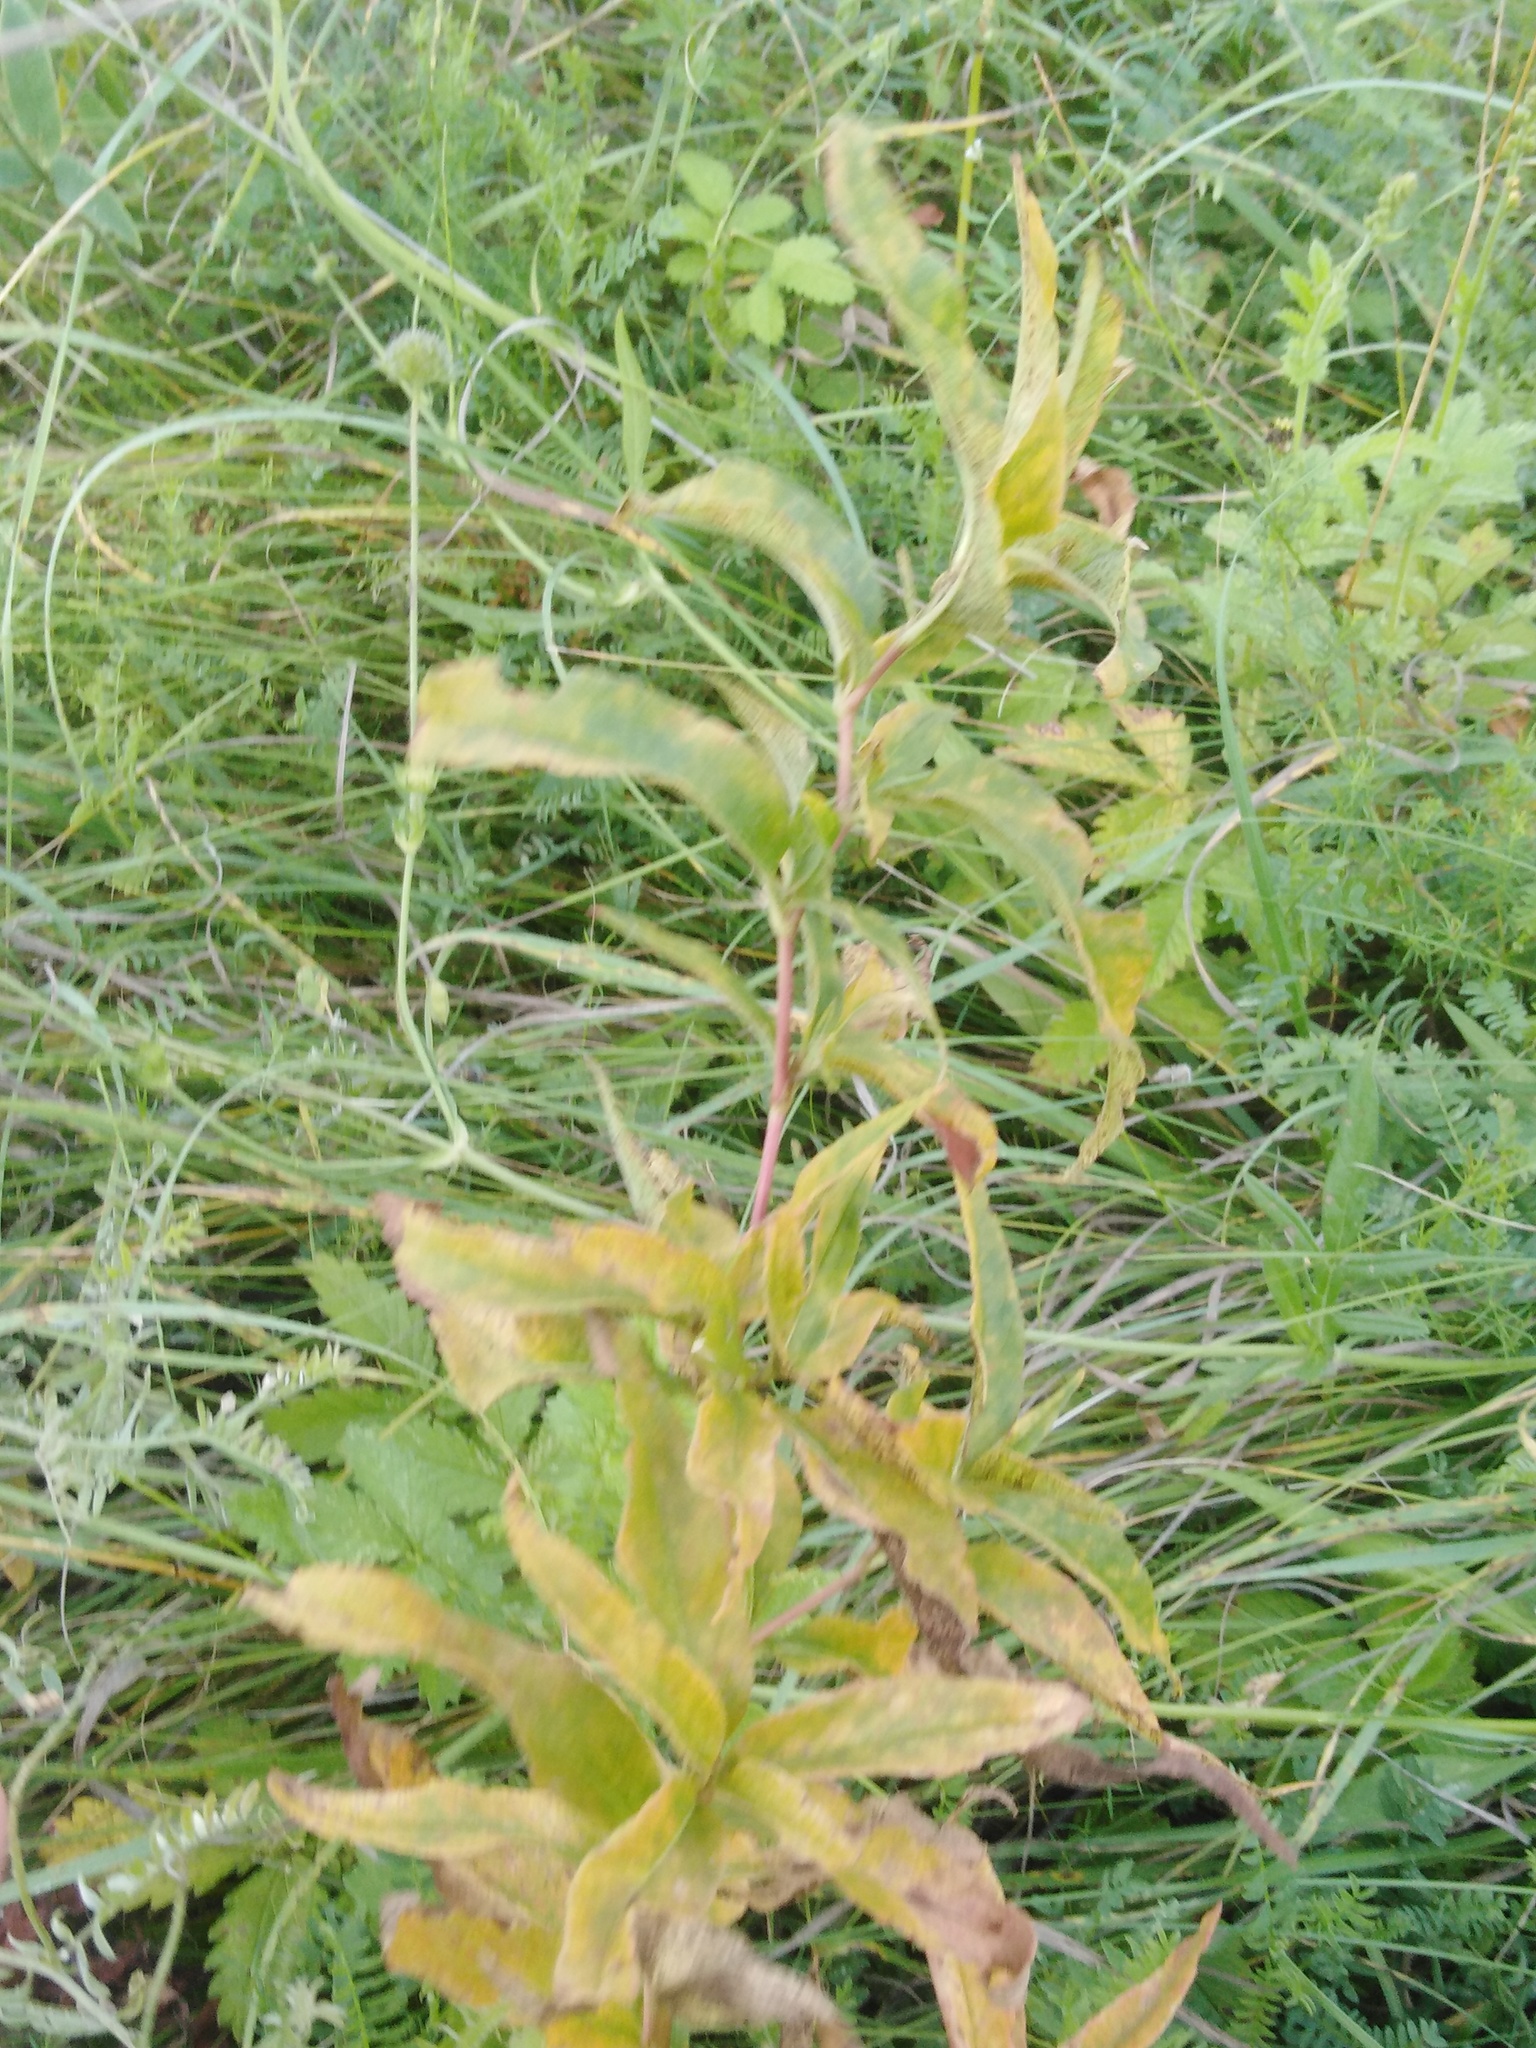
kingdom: Plantae
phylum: Tracheophyta
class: Magnoliopsida
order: Caryophyllales
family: Polygonaceae
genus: Koenigia
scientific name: Koenigia alpina
